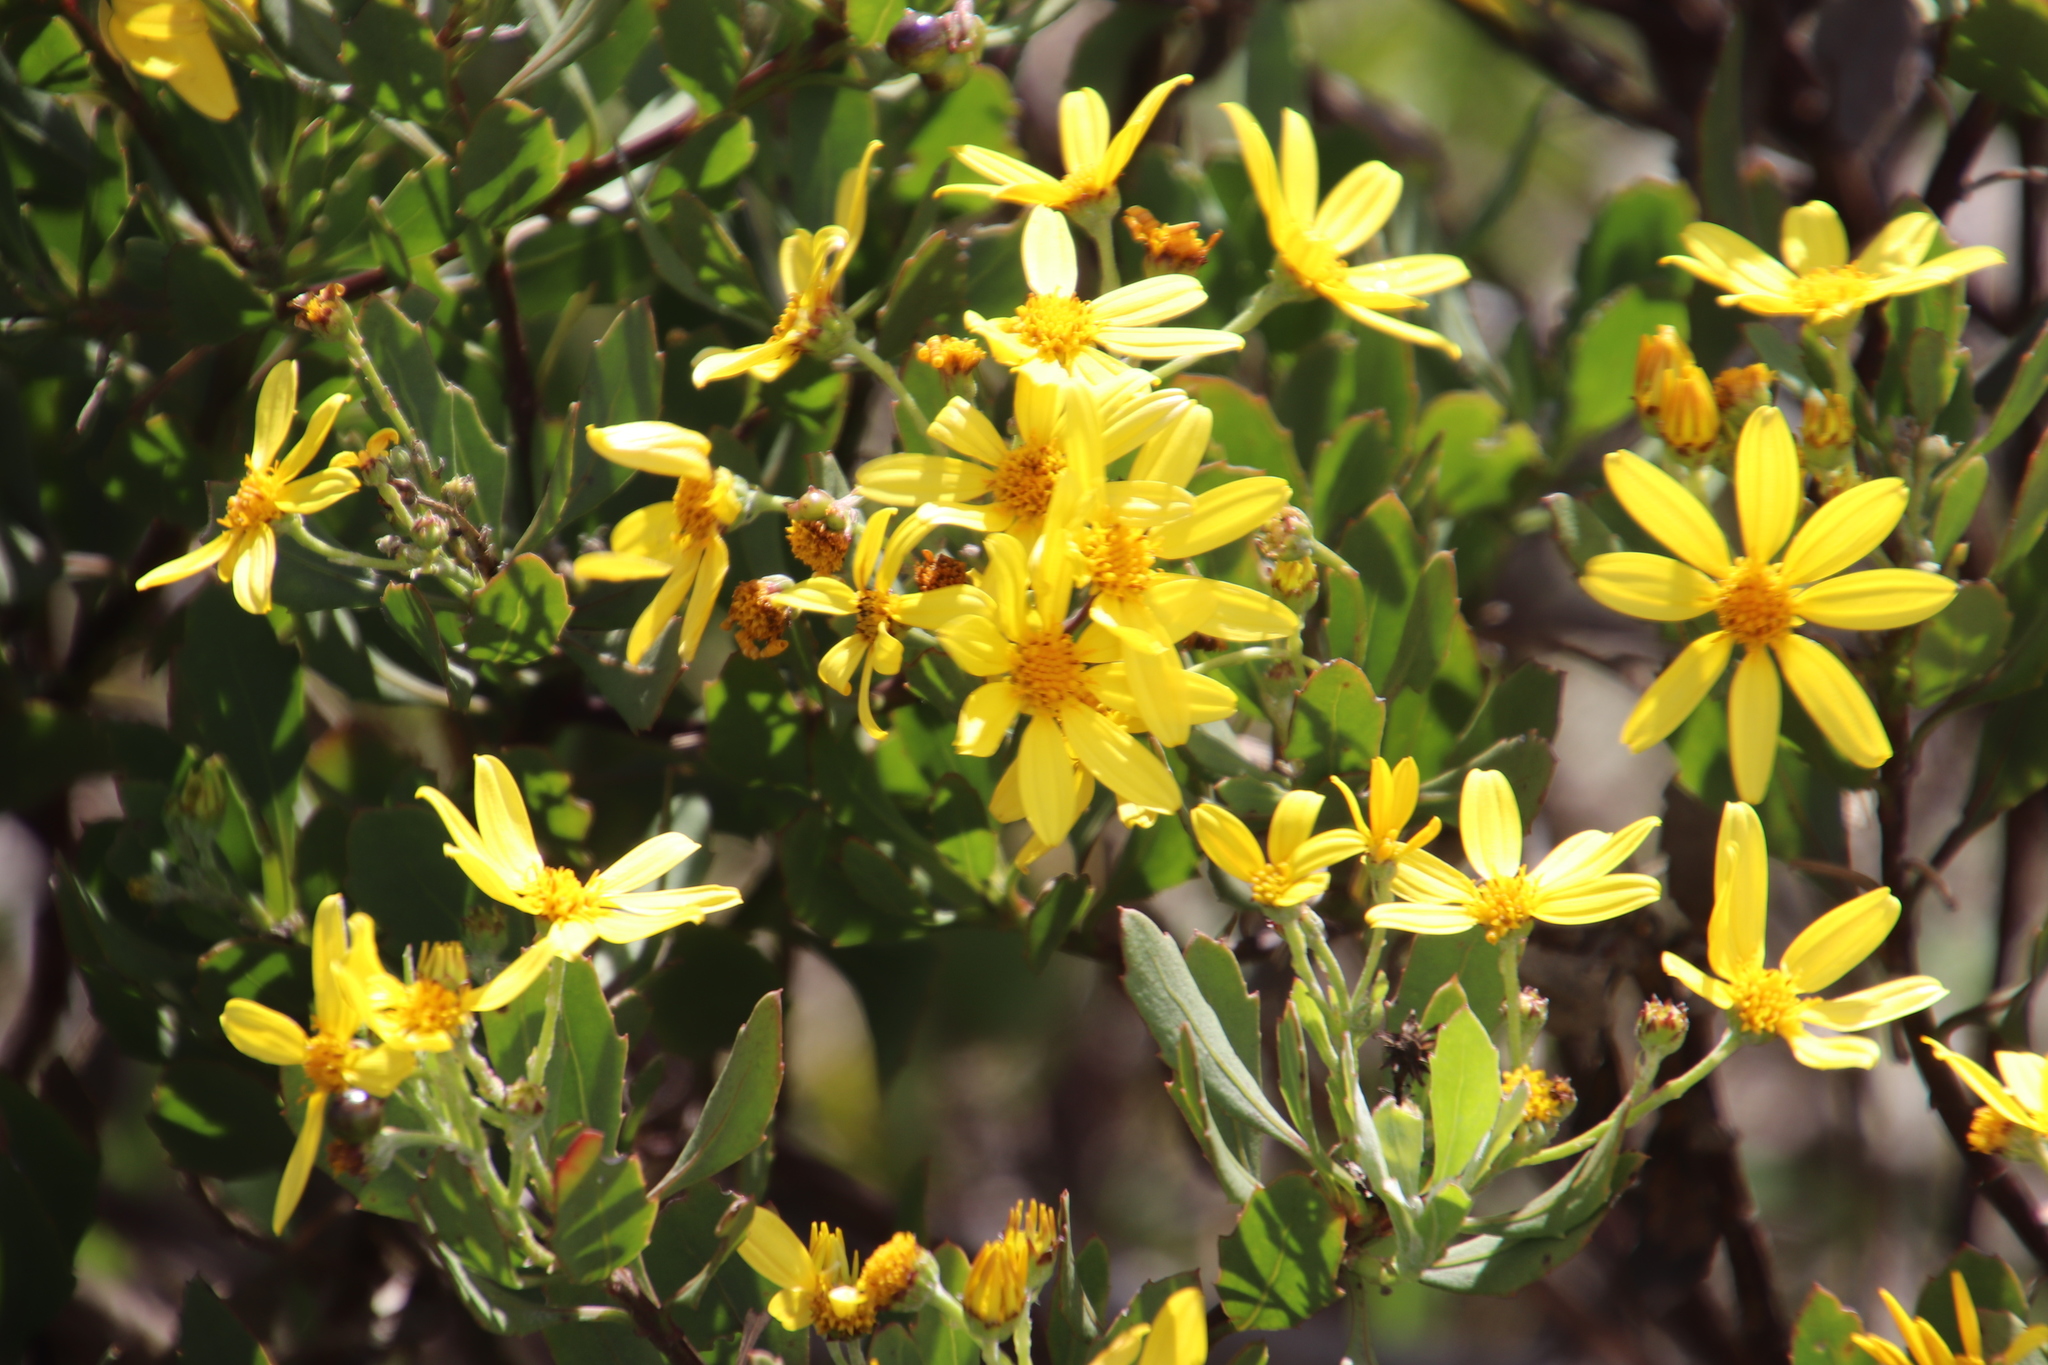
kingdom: Plantae
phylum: Tracheophyta
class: Magnoliopsida
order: Asterales
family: Asteraceae
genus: Osteospermum
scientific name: Osteospermum moniliferum
